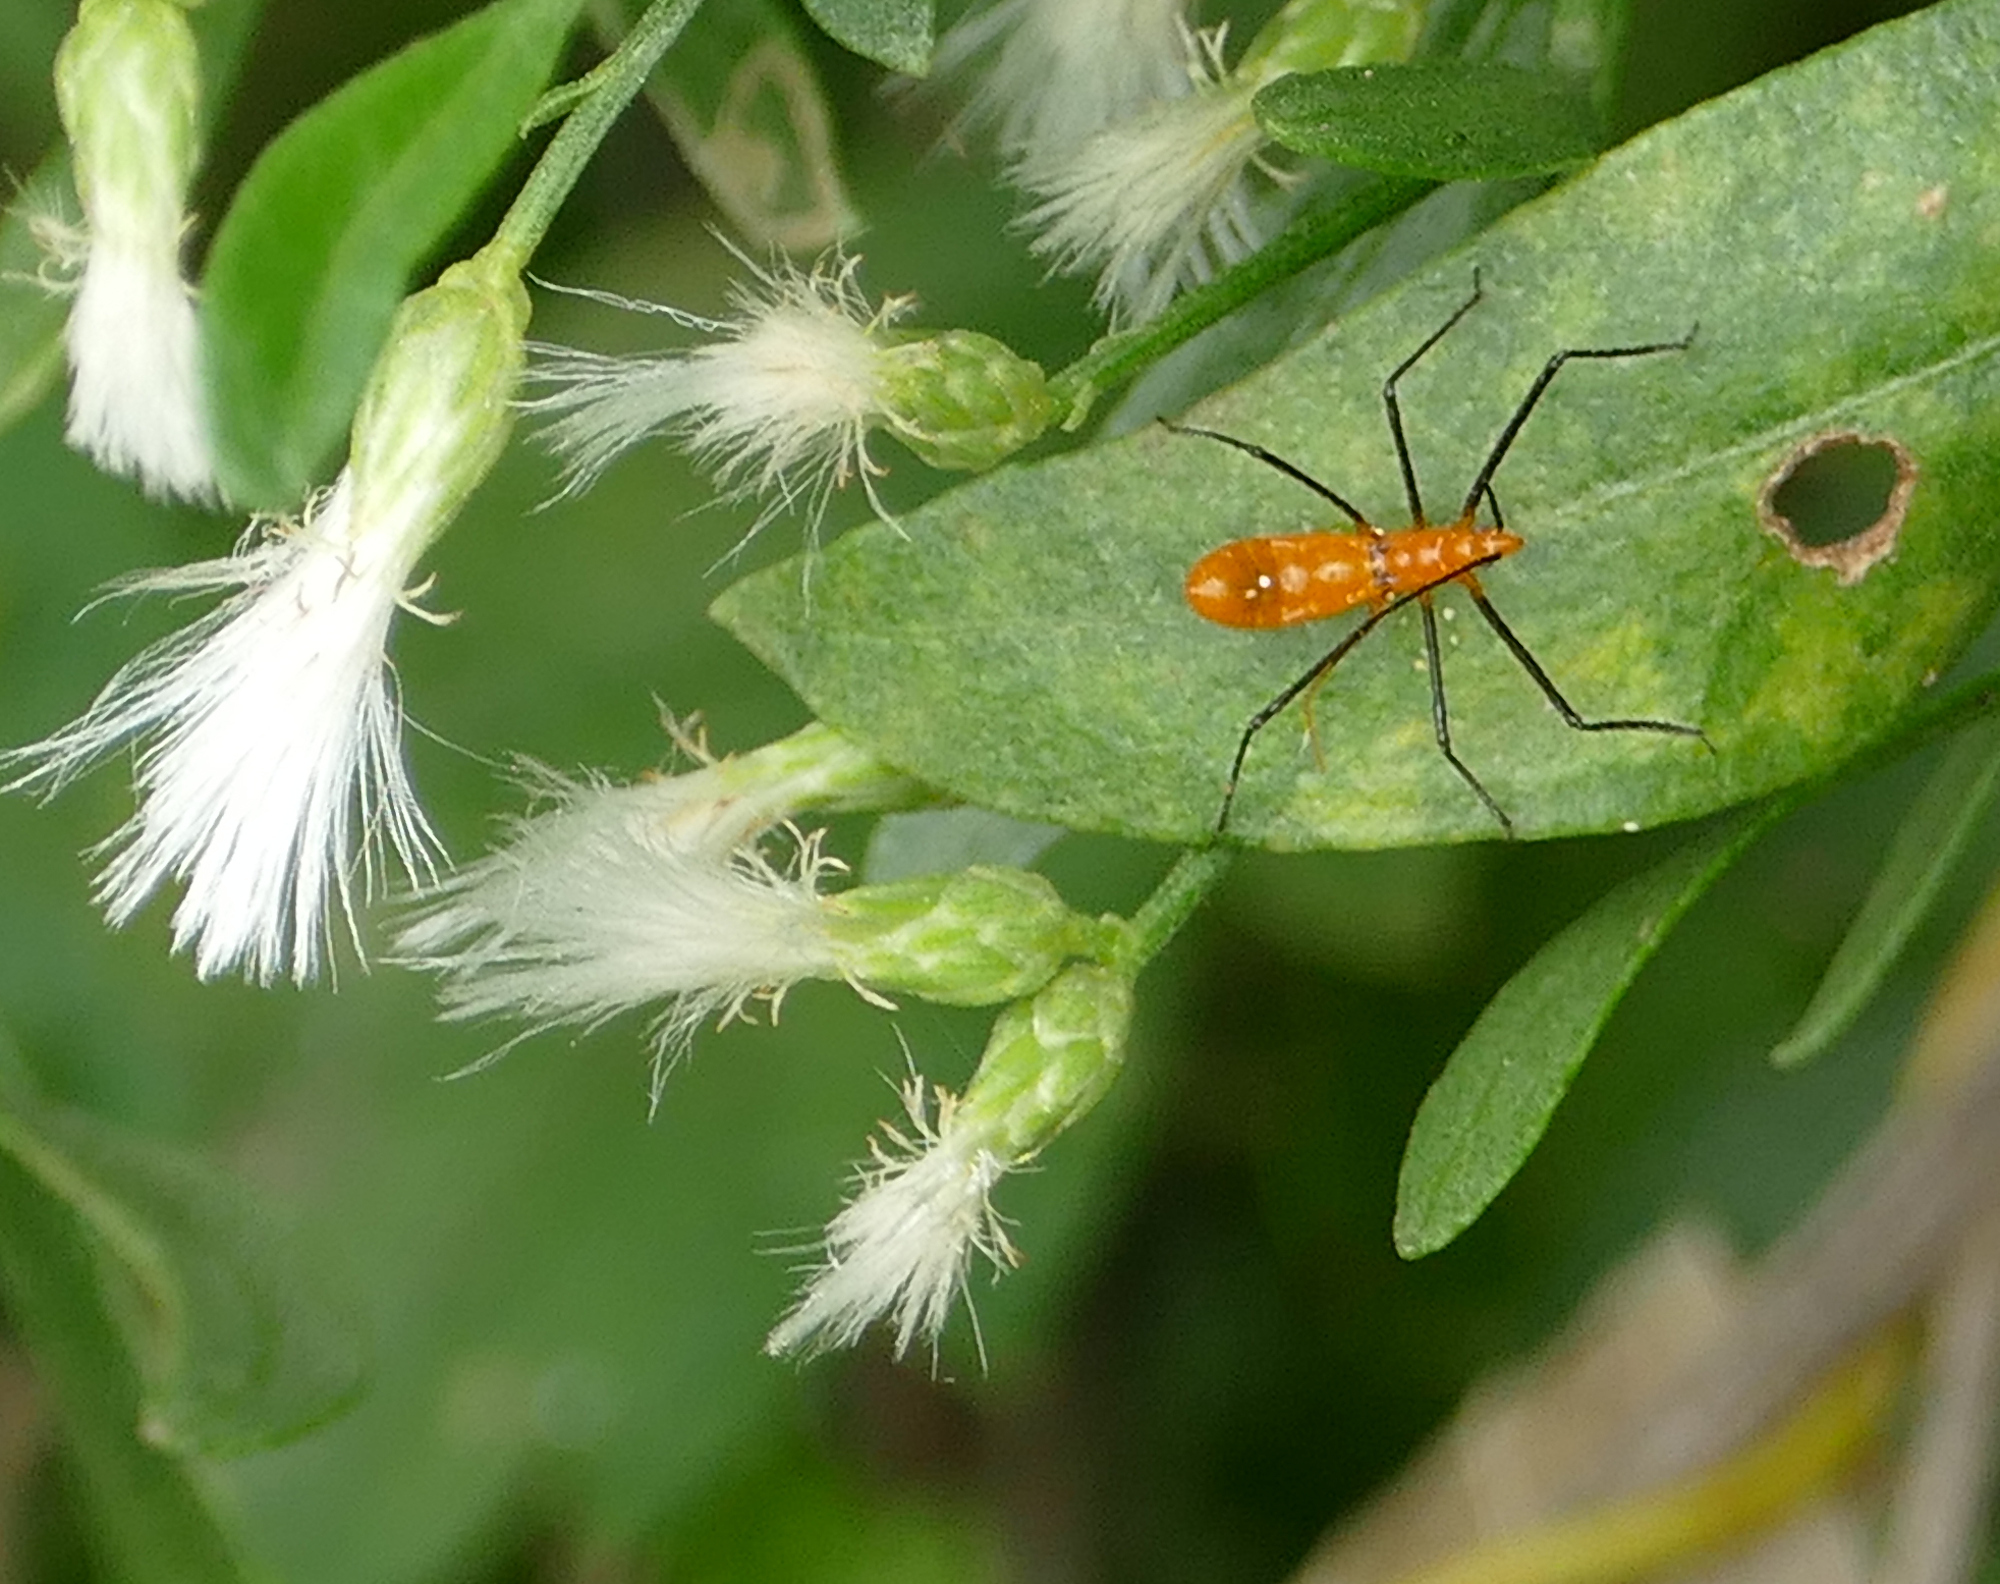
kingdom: Animalia
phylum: Arthropoda
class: Insecta
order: Hemiptera
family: Reduviidae
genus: Zelus
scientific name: Zelus longipes
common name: Milkweed assassin bug
